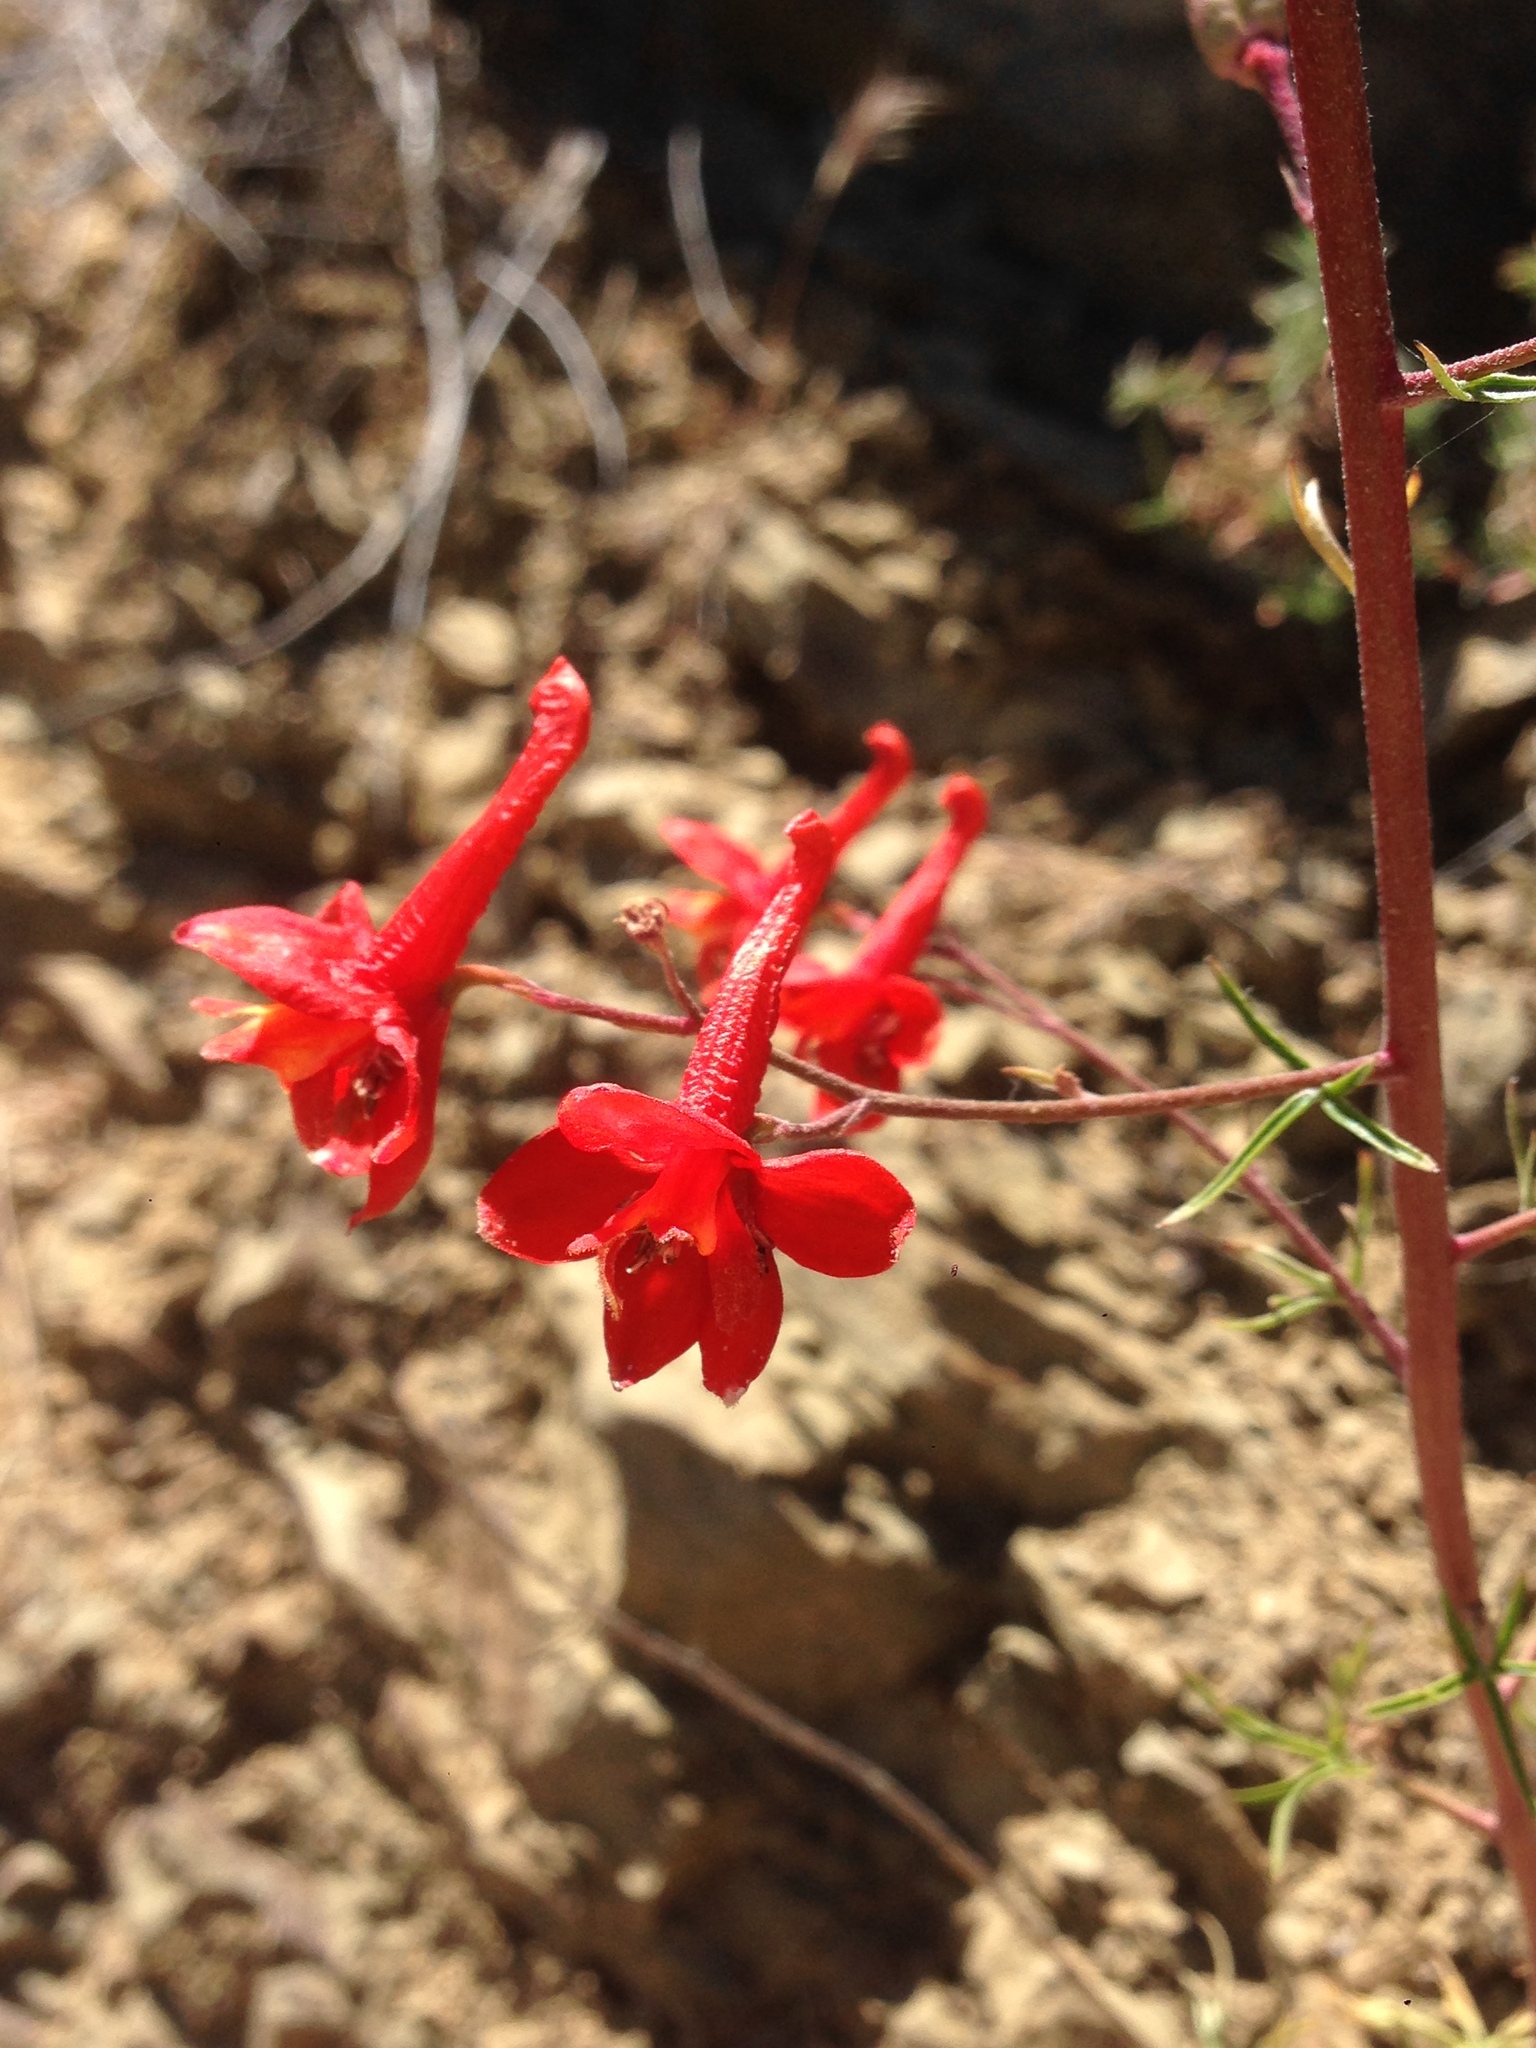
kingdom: Plantae
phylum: Tracheophyta
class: Magnoliopsida
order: Ranunculales
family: Ranunculaceae
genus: Delphinium
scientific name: Delphinium cardinale
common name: Scarlet larkspur
